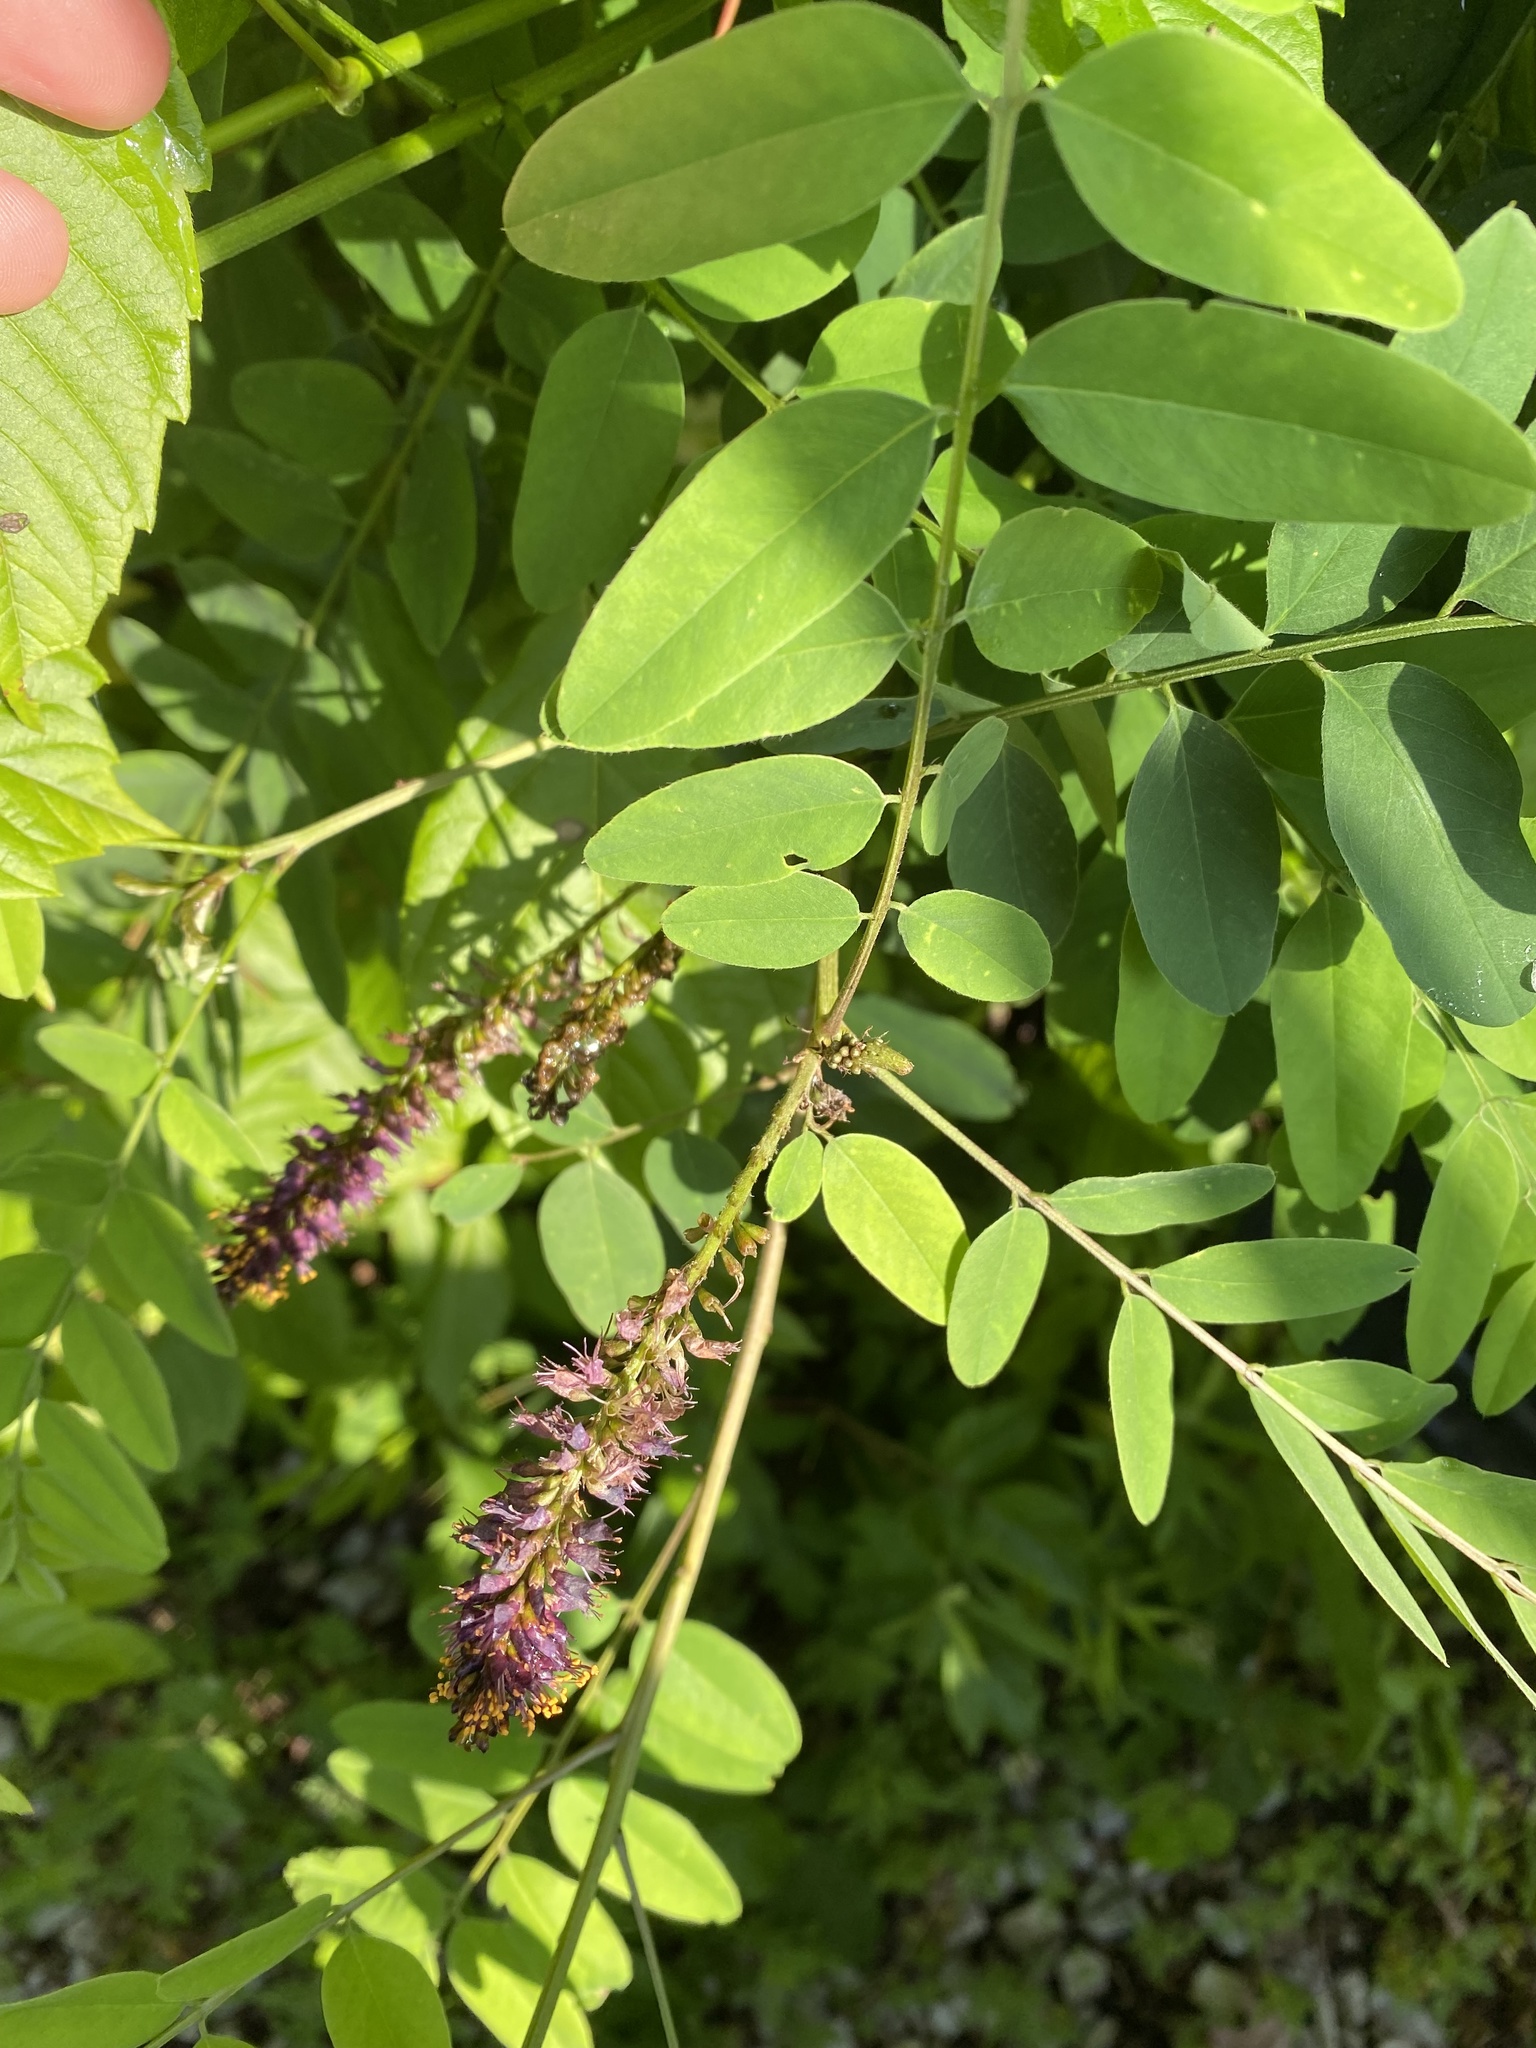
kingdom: Plantae
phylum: Tracheophyta
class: Magnoliopsida
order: Fabales
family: Fabaceae
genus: Amorpha
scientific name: Amorpha fruticosa
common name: False indigo
